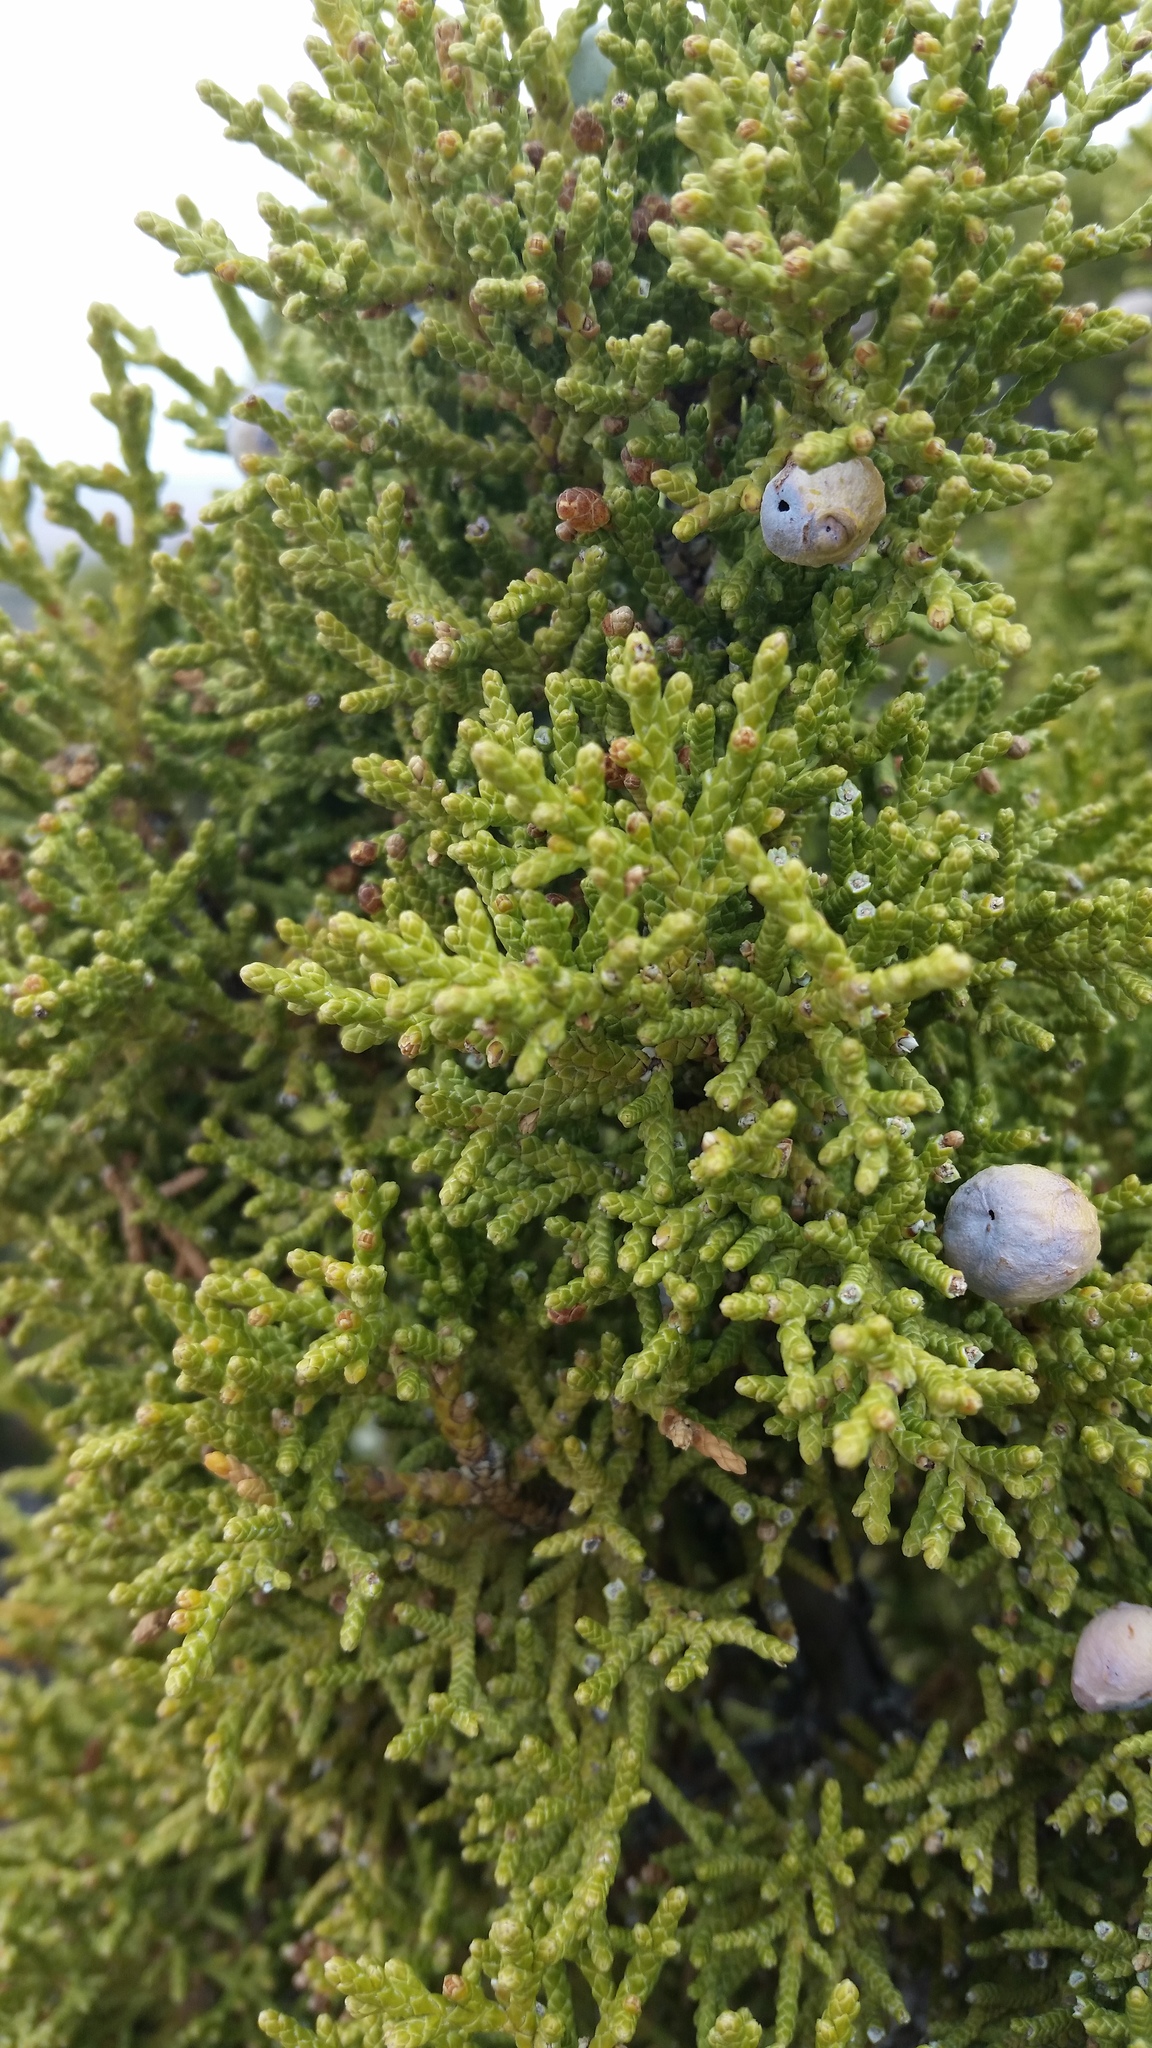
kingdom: Plantae
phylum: Tracheophyta
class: Pinopsida
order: Pinales
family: Cupressaceae
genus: Juniperus
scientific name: Juniperus osteosperma
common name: Utah juniper
